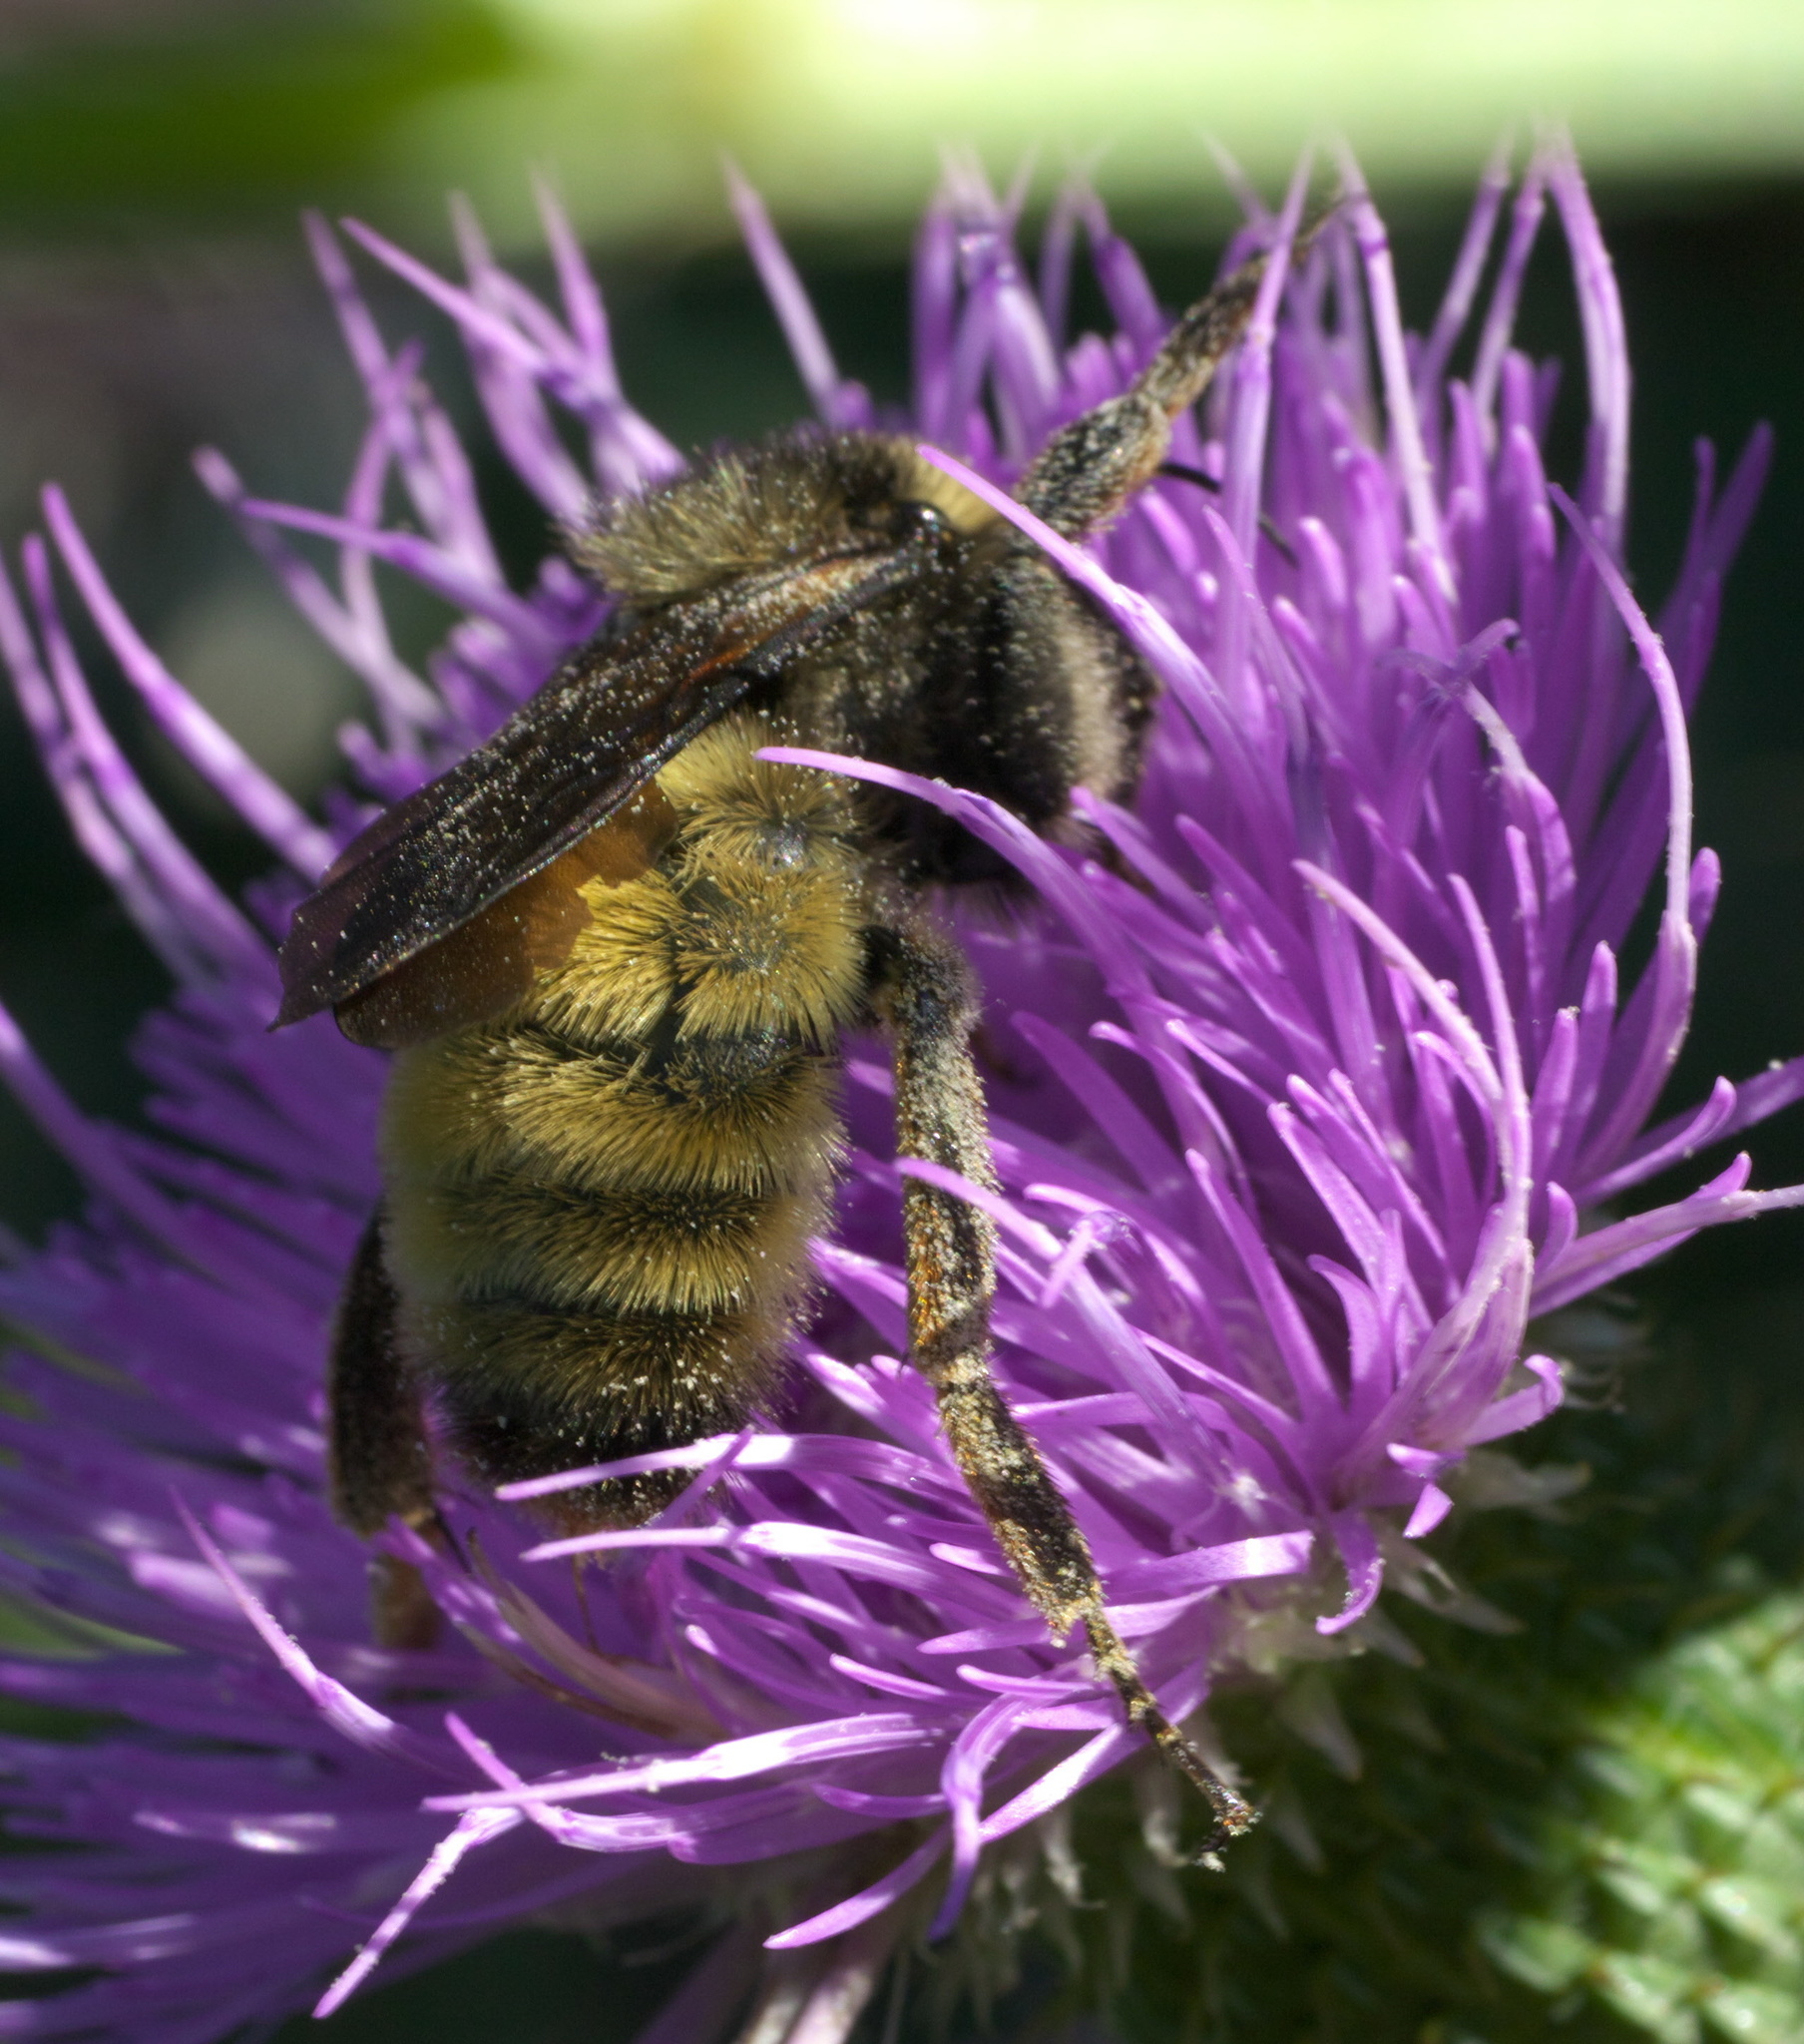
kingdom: Animalia
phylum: Arthropoda
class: Insecta
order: Hymenoptera
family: Apidae
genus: Bombus
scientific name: Bombus pensylvanicus
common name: Bumble bee
